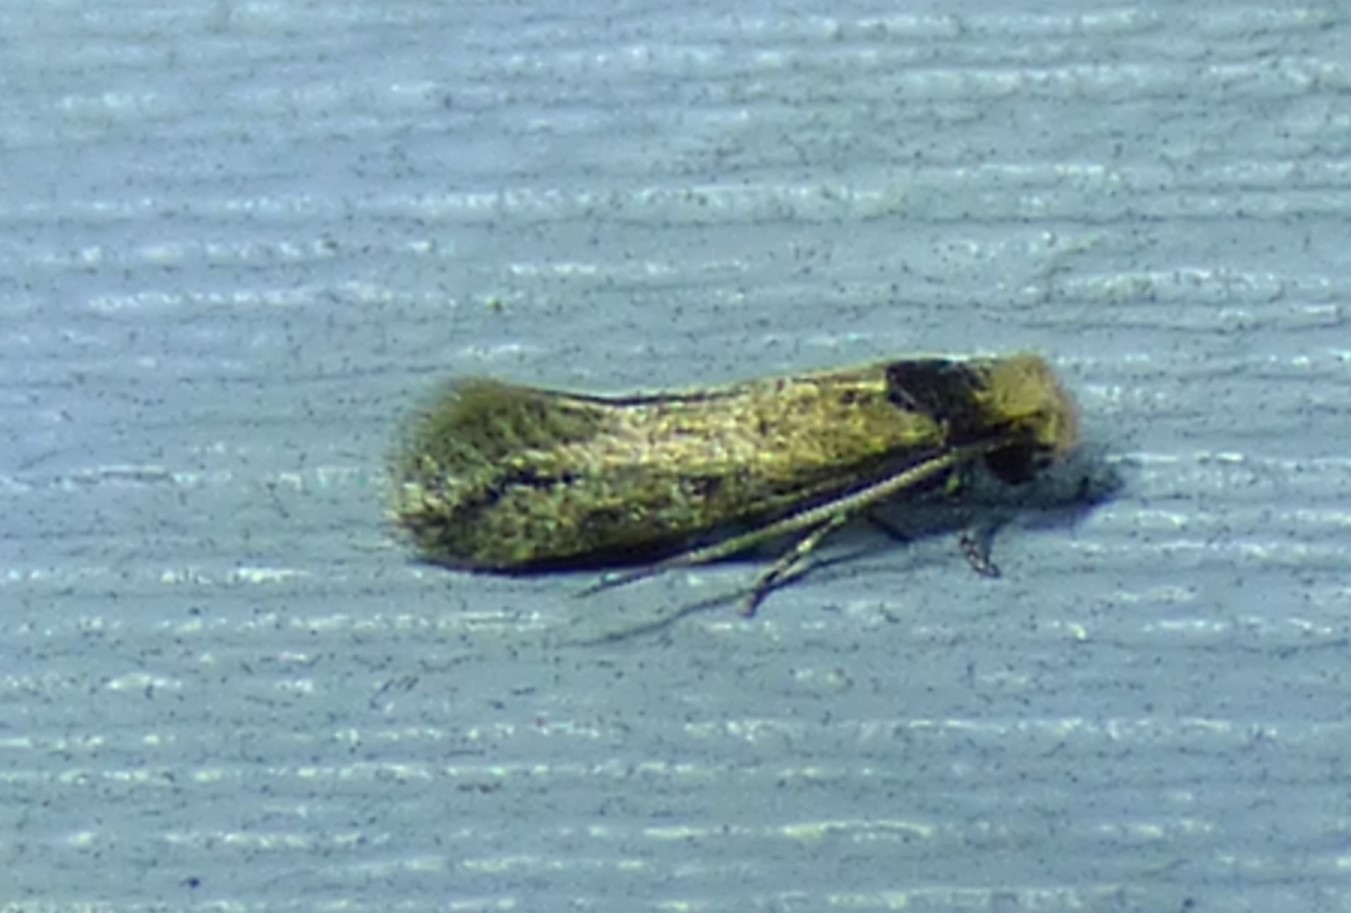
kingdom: Animalia
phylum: Arthropoda
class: Insecta
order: Lepidoptera
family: Meessiidae
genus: Homostinea
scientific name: Homostinea curviliniella
